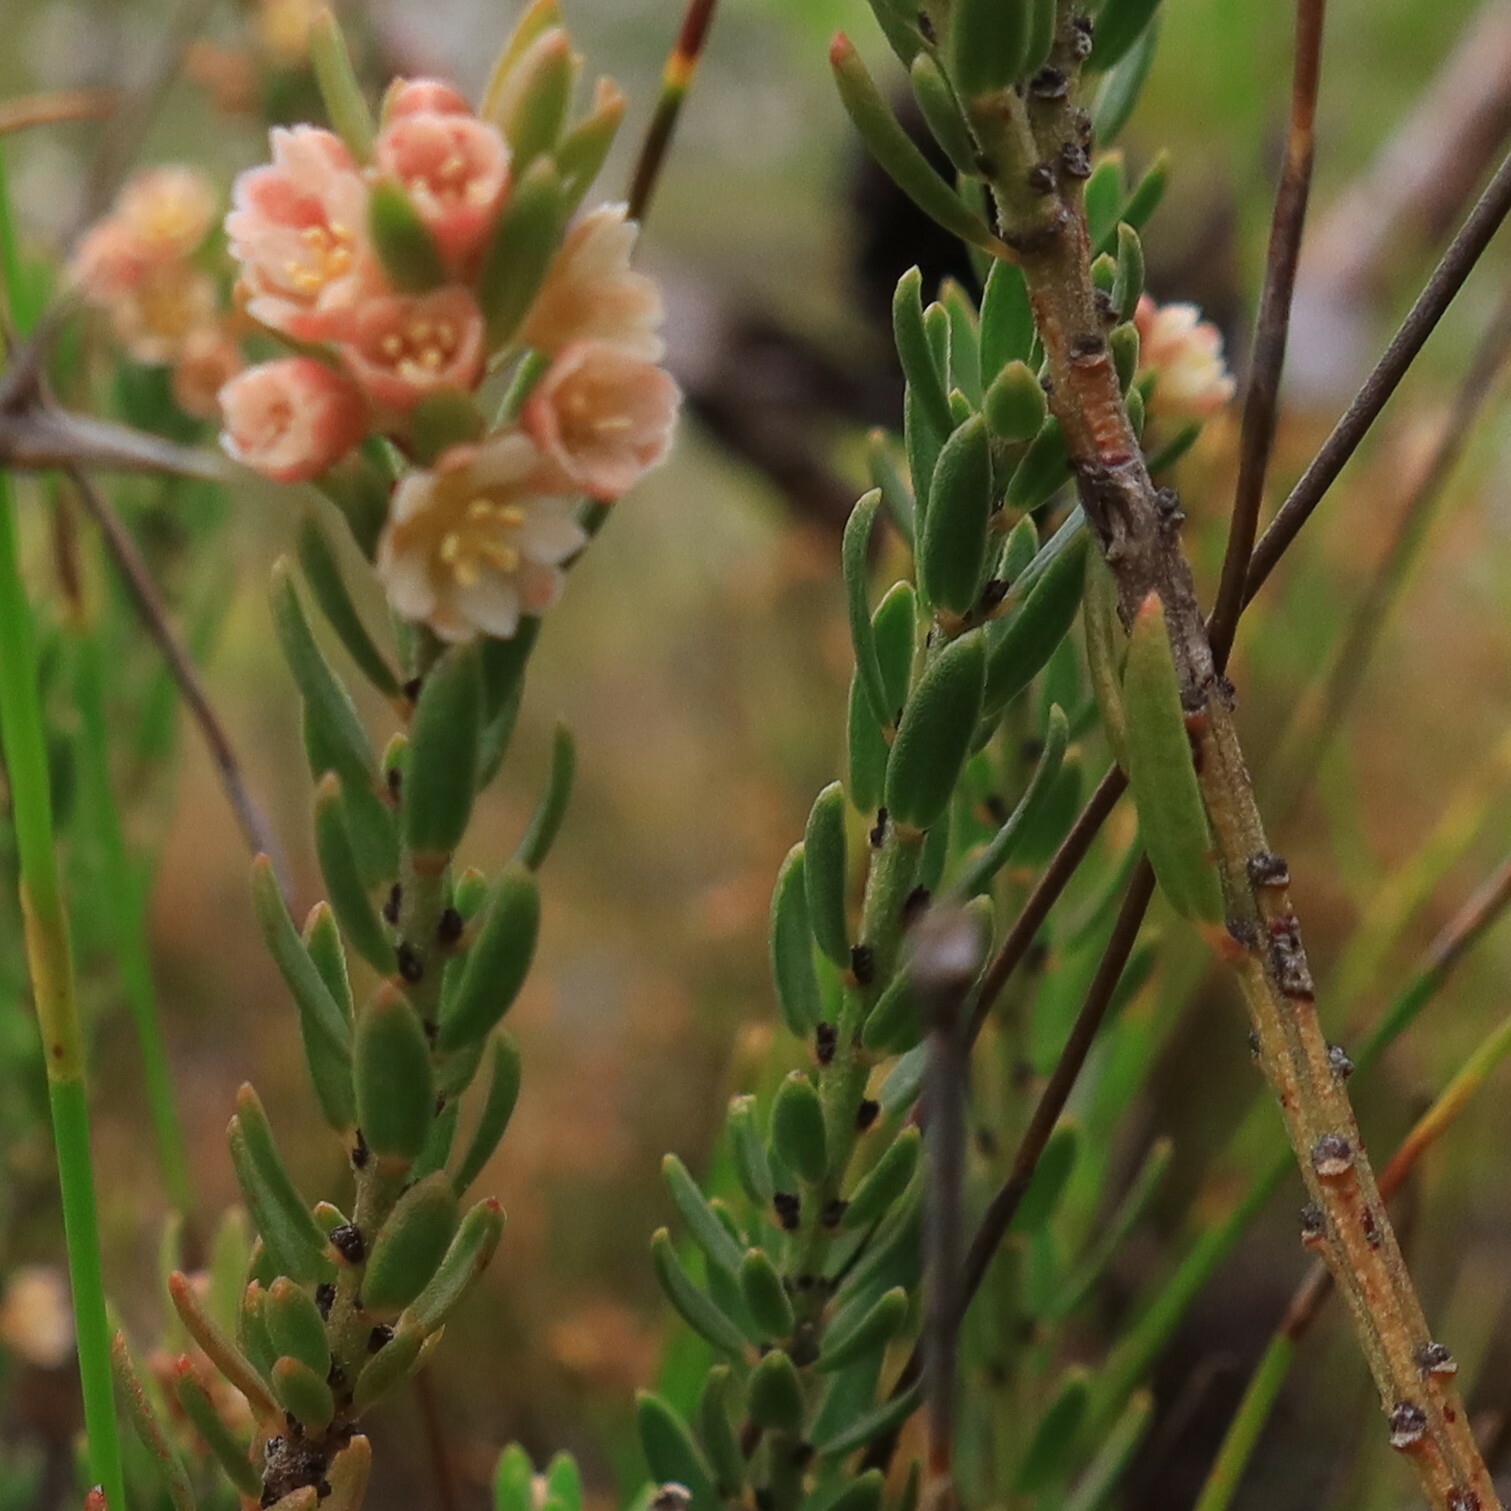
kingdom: Plantae
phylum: Tracheophyta
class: Magnoliopsida
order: Malpighiales
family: Peraceae
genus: Clutia
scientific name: Clutia ericoides
